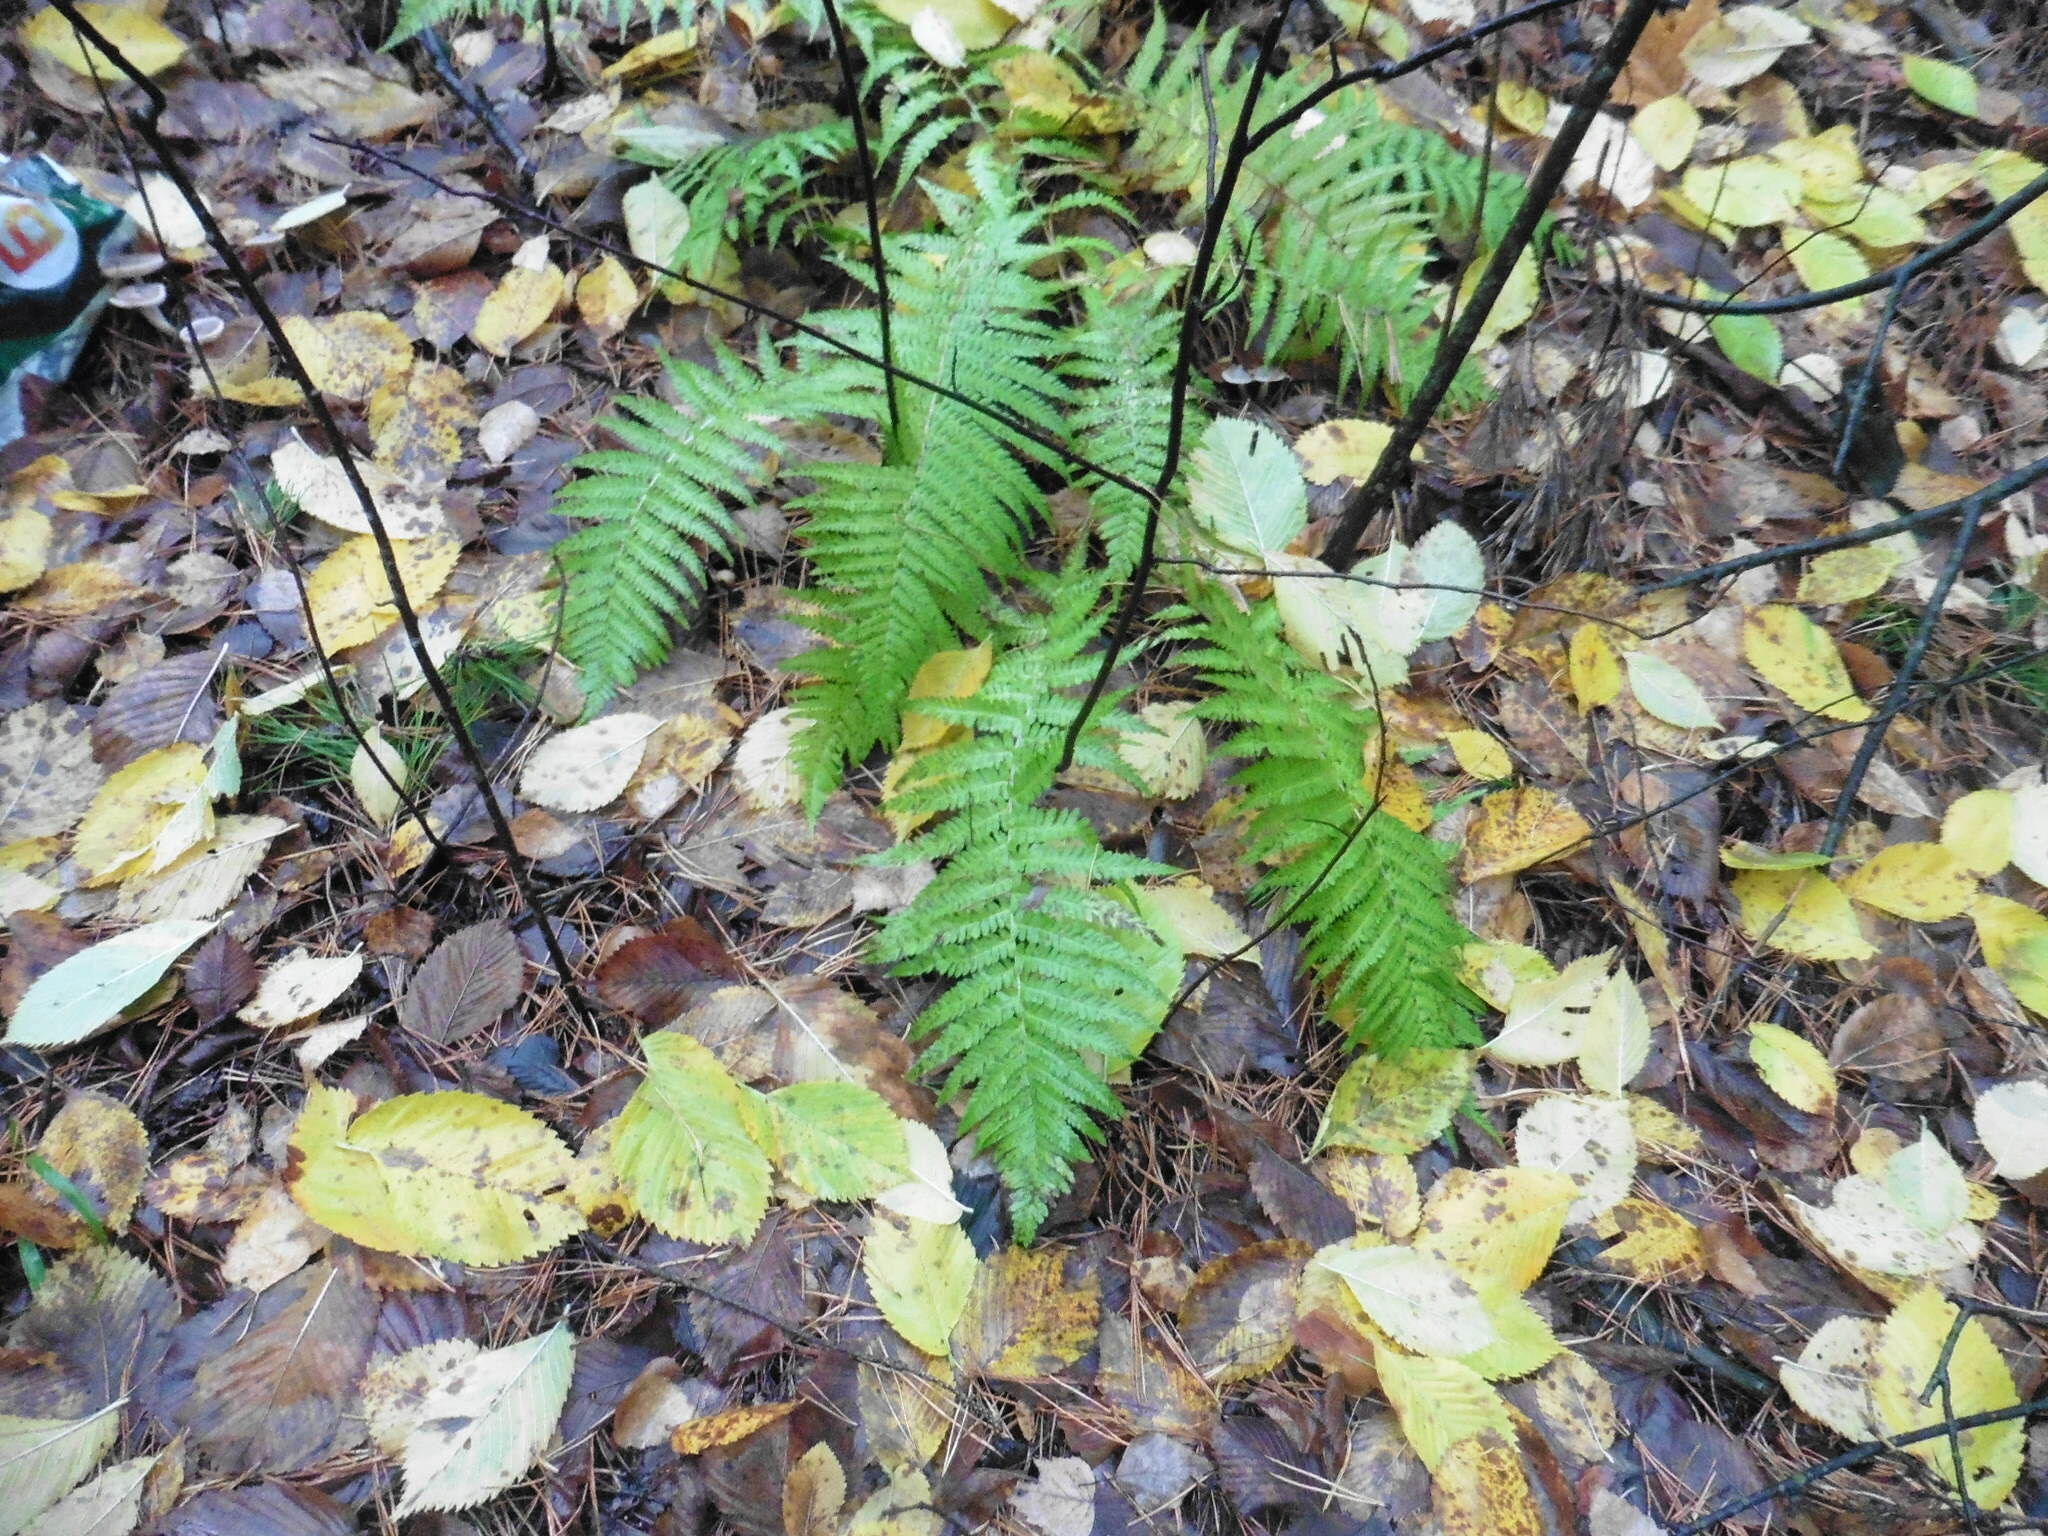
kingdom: Plantae
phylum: Tracheophyta
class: Polypodiopsida
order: Polypodiales
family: Dryopteridaceae
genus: Dryopteris
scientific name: Dryopteris filix-mas
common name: Male fern
